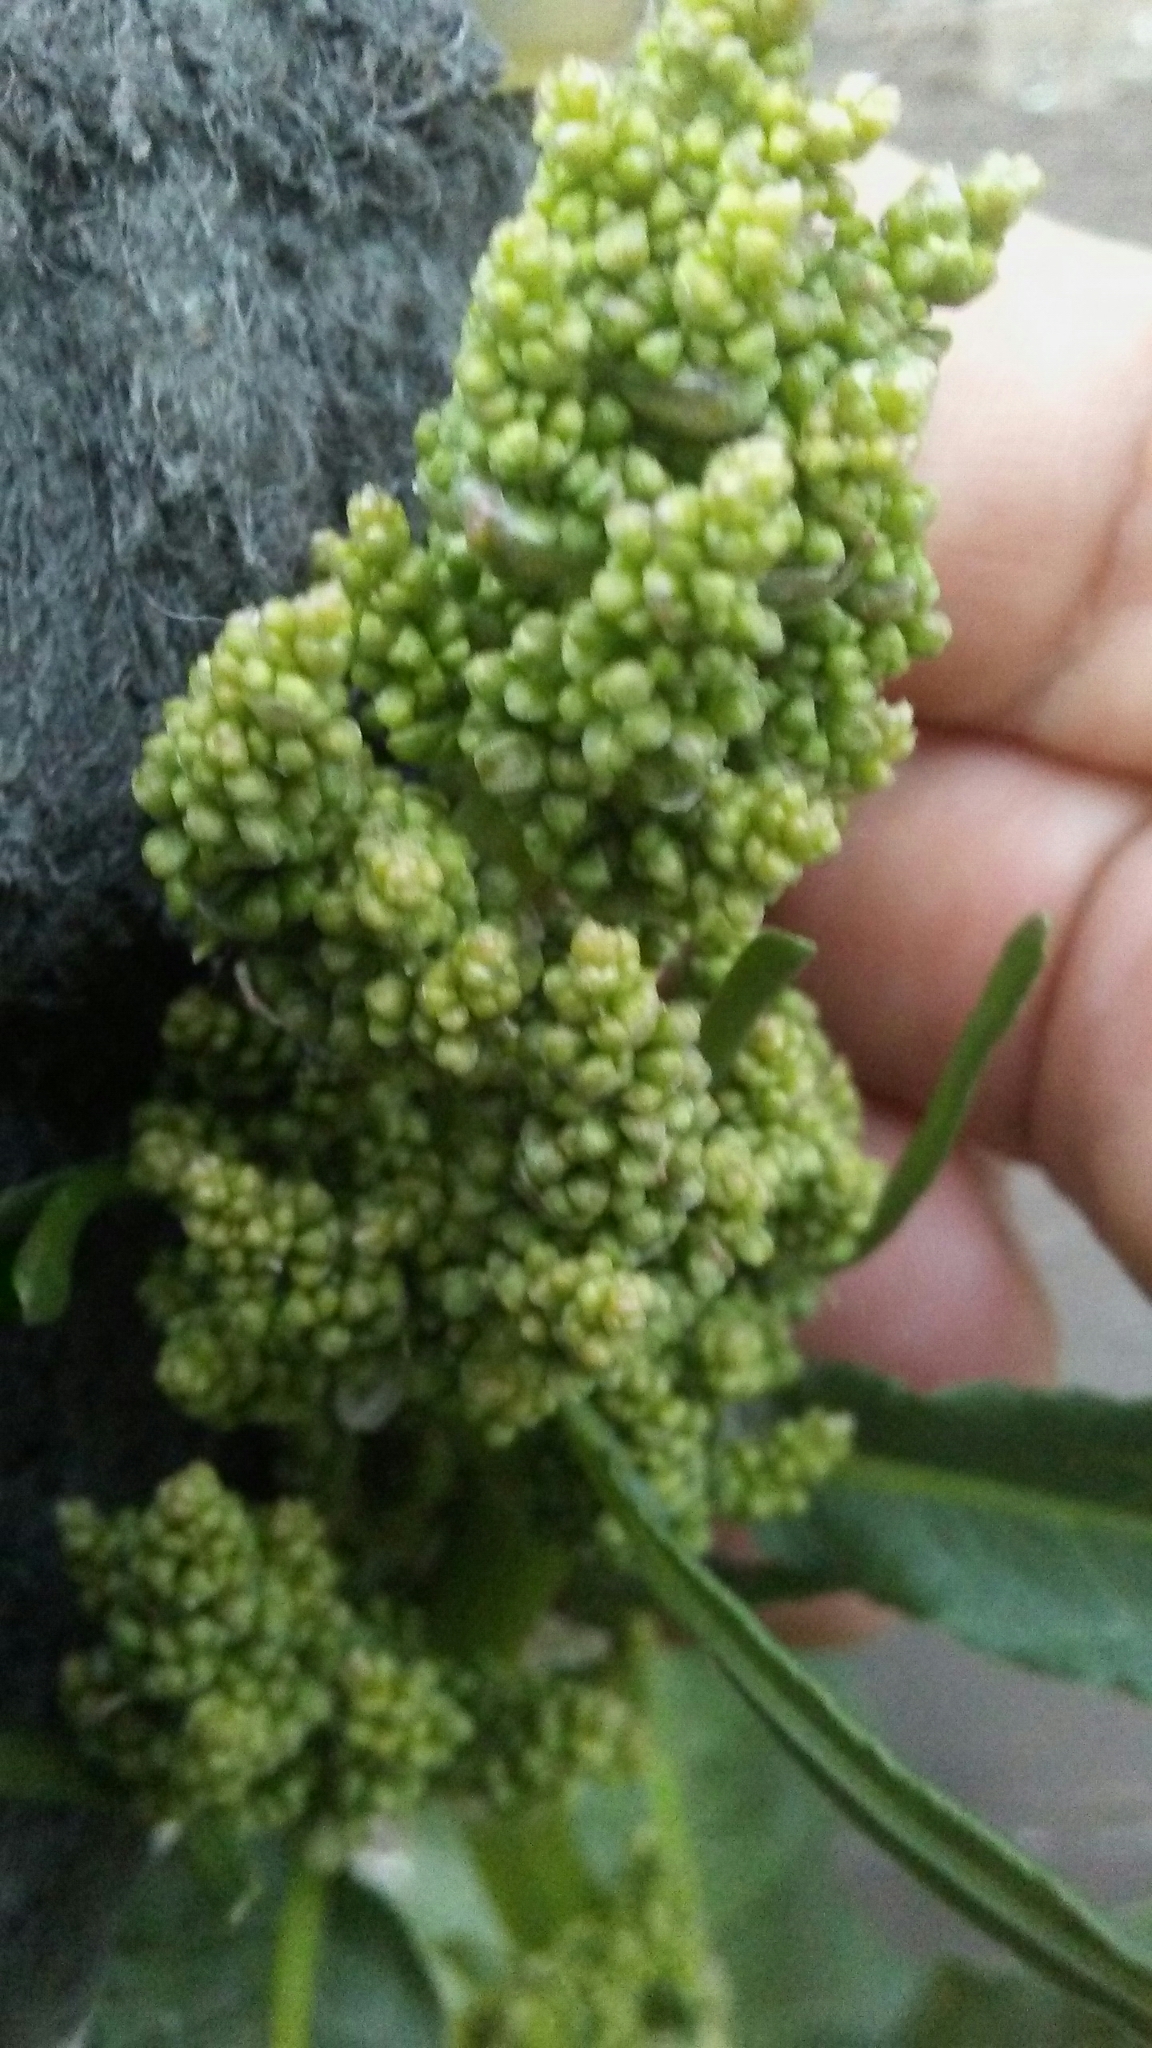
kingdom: Plantae
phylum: Tracheophyta
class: Magnoliopsida
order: Caryophyllales
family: Polygonaceae
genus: Rumex
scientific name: Rumex crispus
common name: Curled dock
